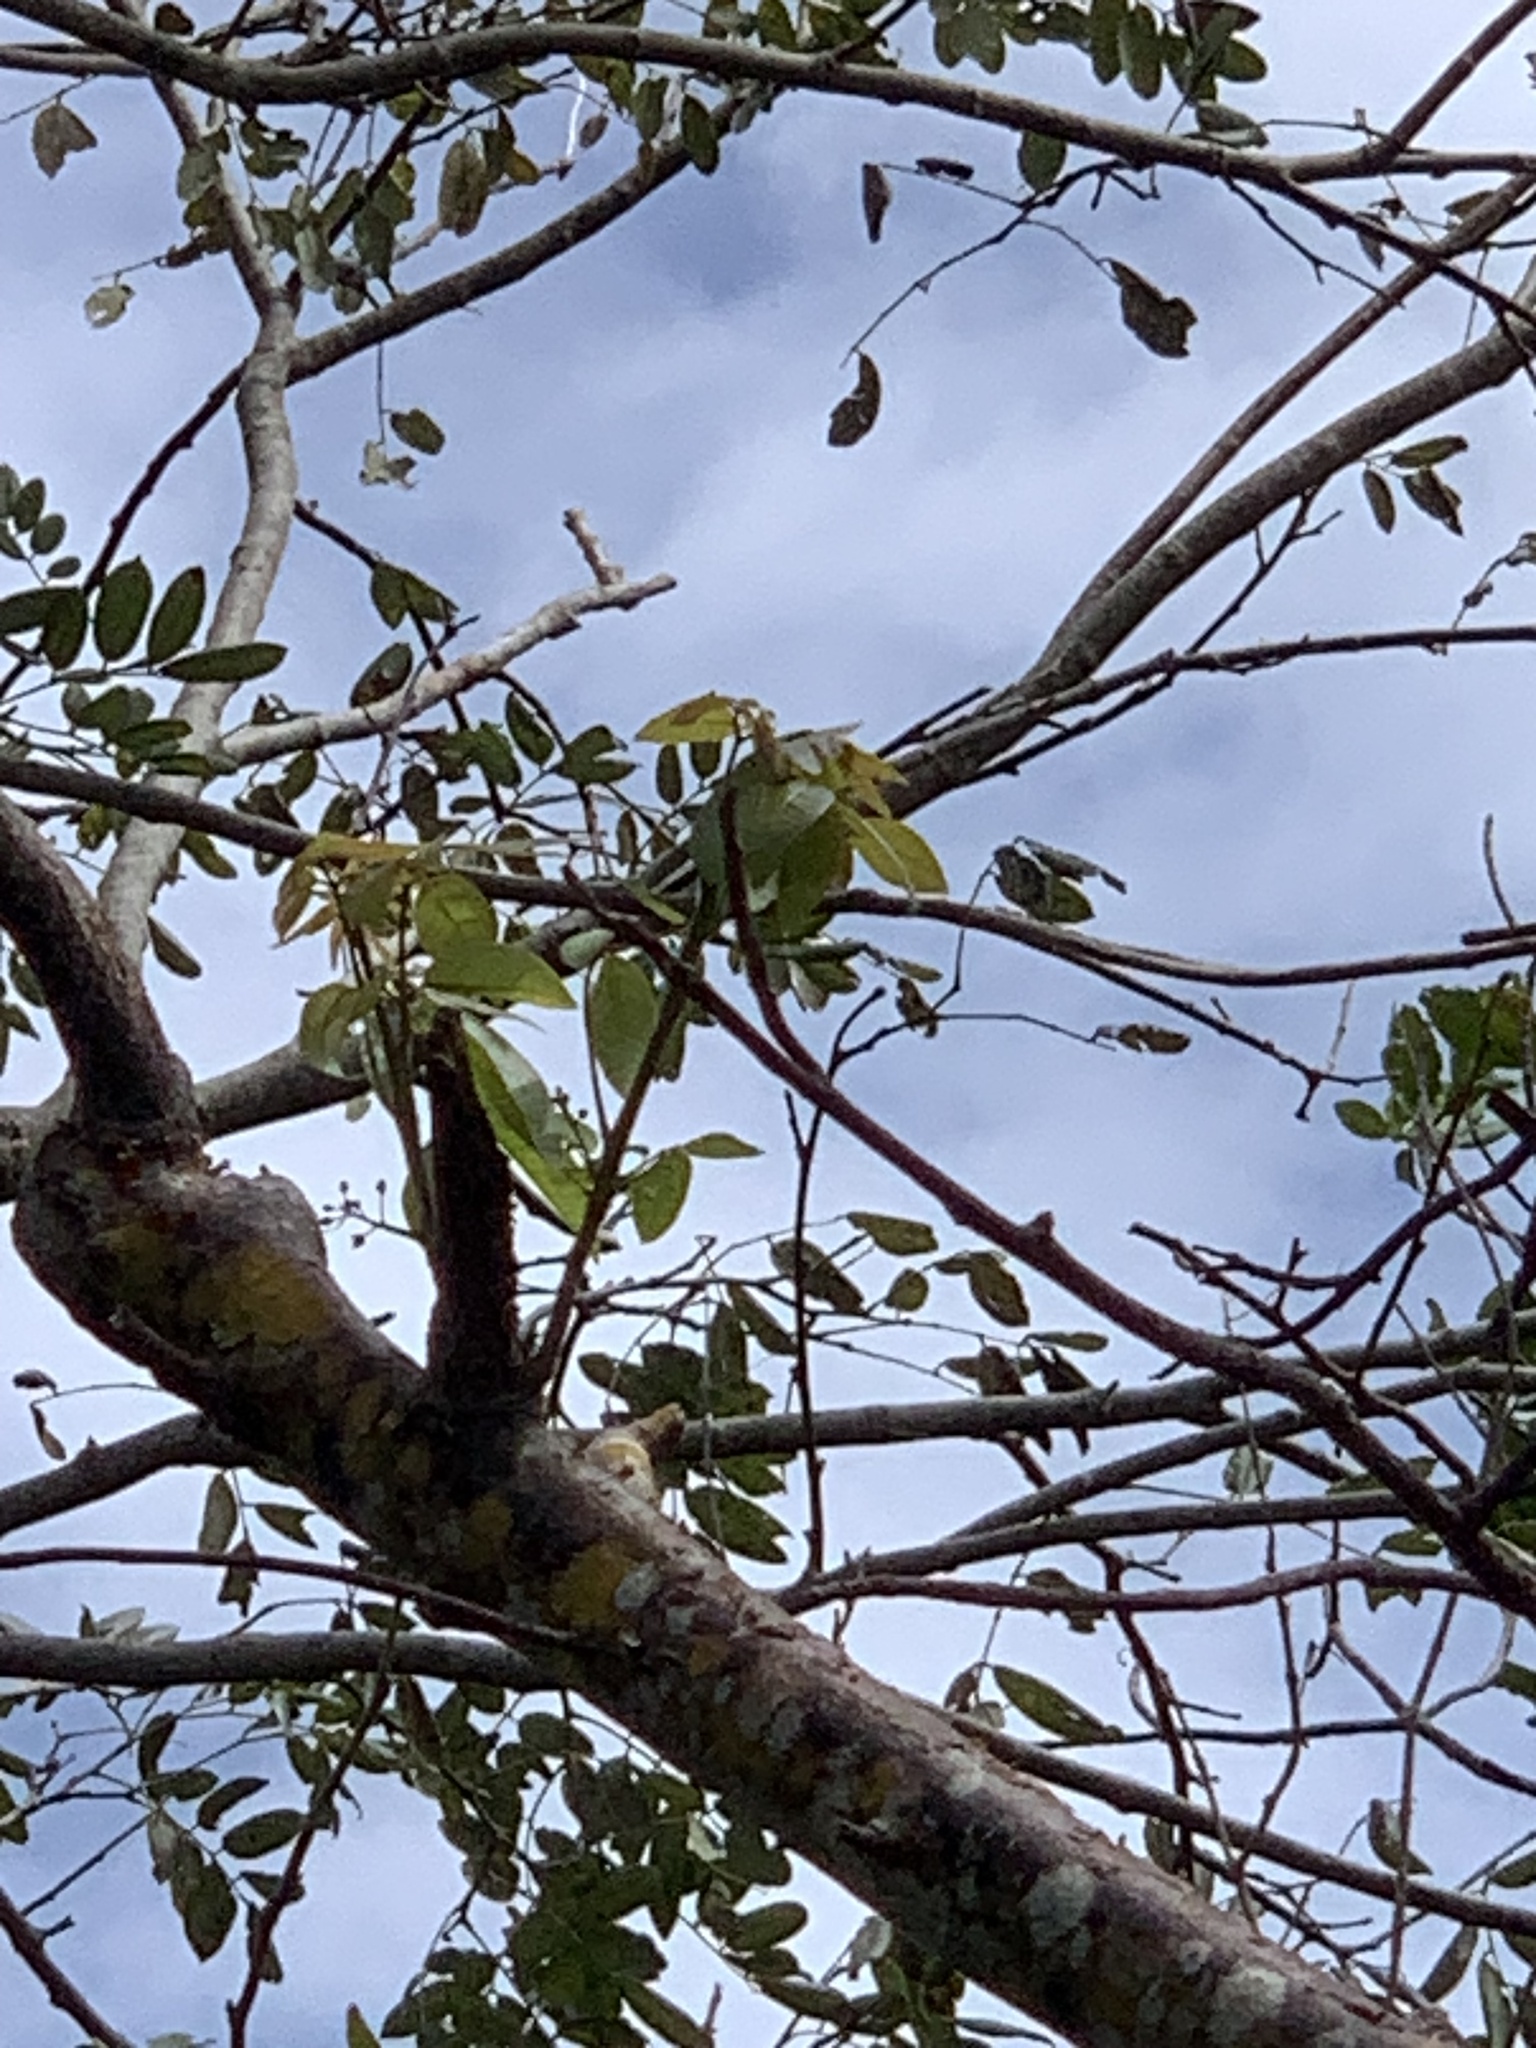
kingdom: Plantae
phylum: Tracheophyta
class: Magnoliopsida
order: Sapindales
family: Burseraceae
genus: Bursera
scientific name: Bursera simaruba
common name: Turpentine tree
